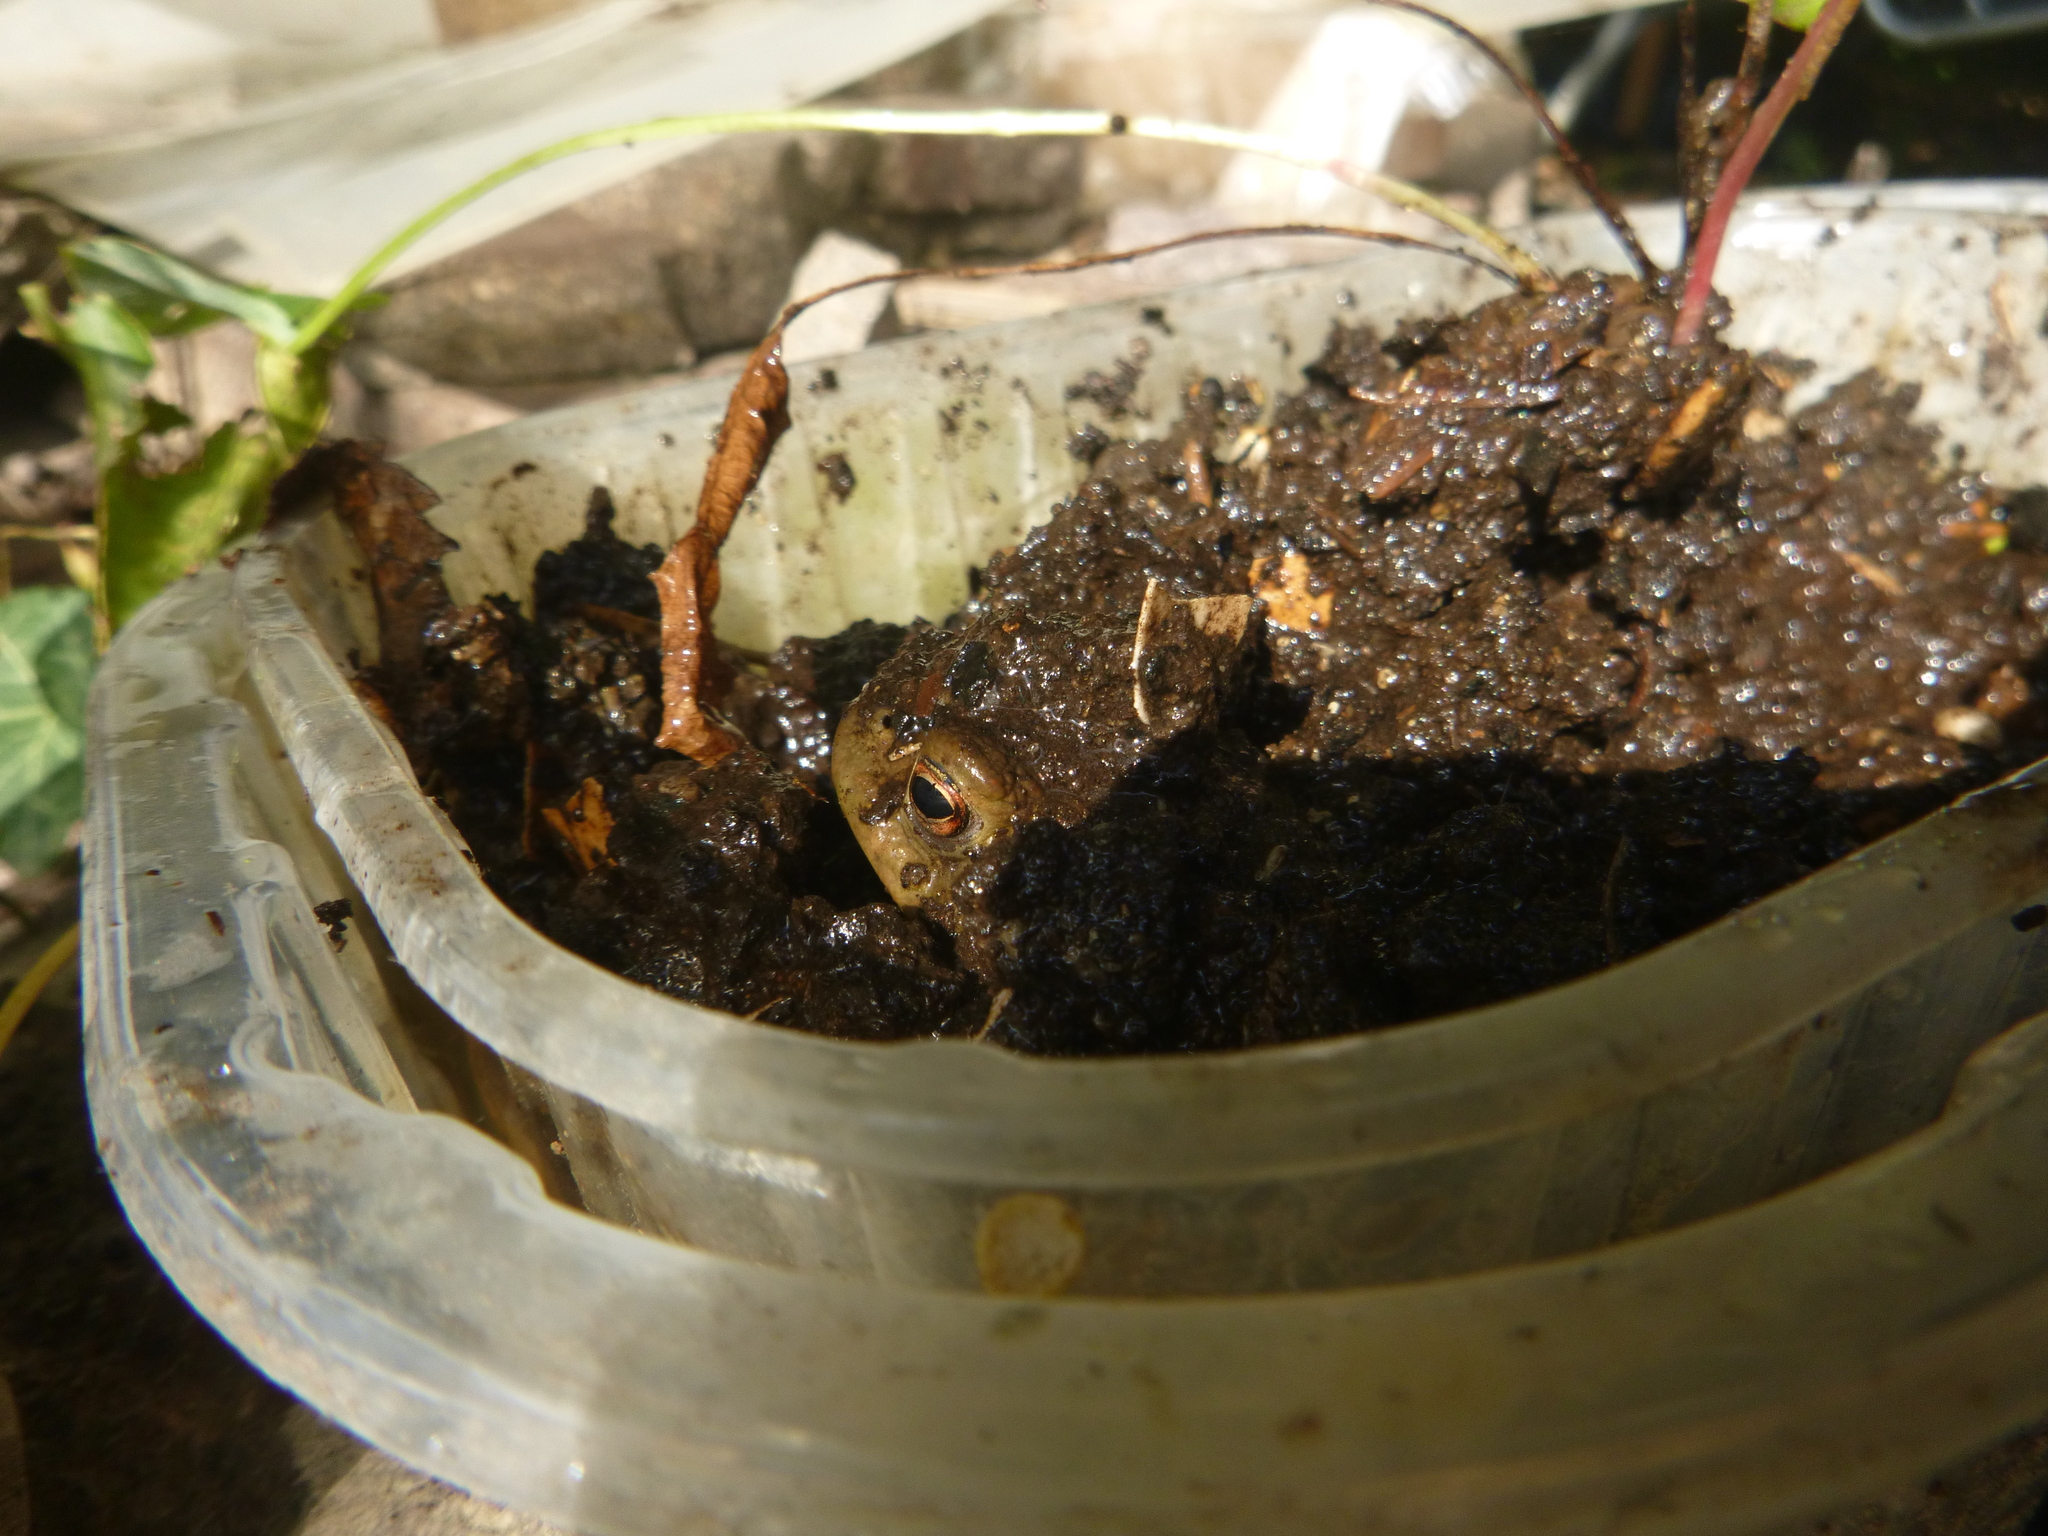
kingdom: Animalia
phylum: Chordata
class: Amphibia
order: Anura
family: Bufonidae
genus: Bufo
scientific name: Bufo bufo
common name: Common toad
